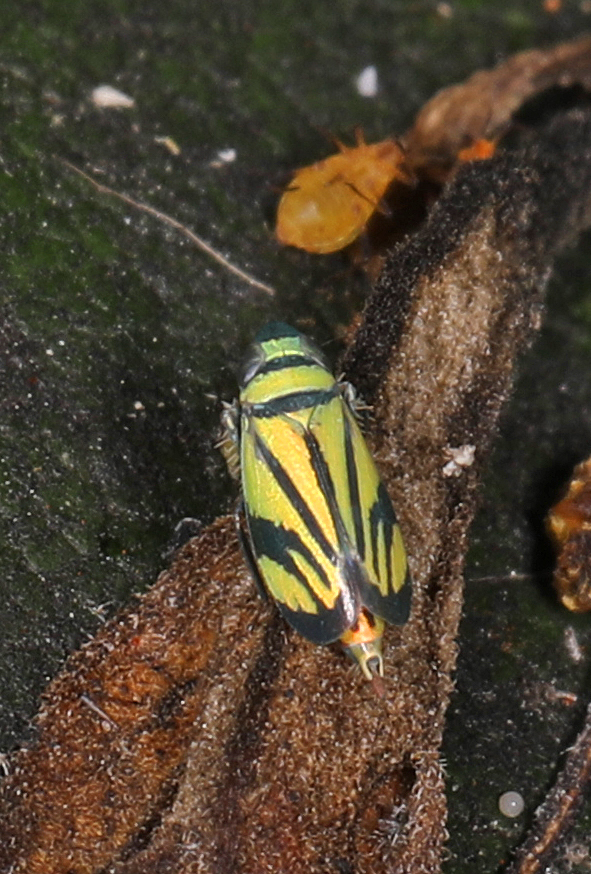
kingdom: Animalia
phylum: Arthropoda
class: Insecta
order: Hemiptera
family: Cicadellidae
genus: Stirellus
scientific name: Stirellus bicolor
